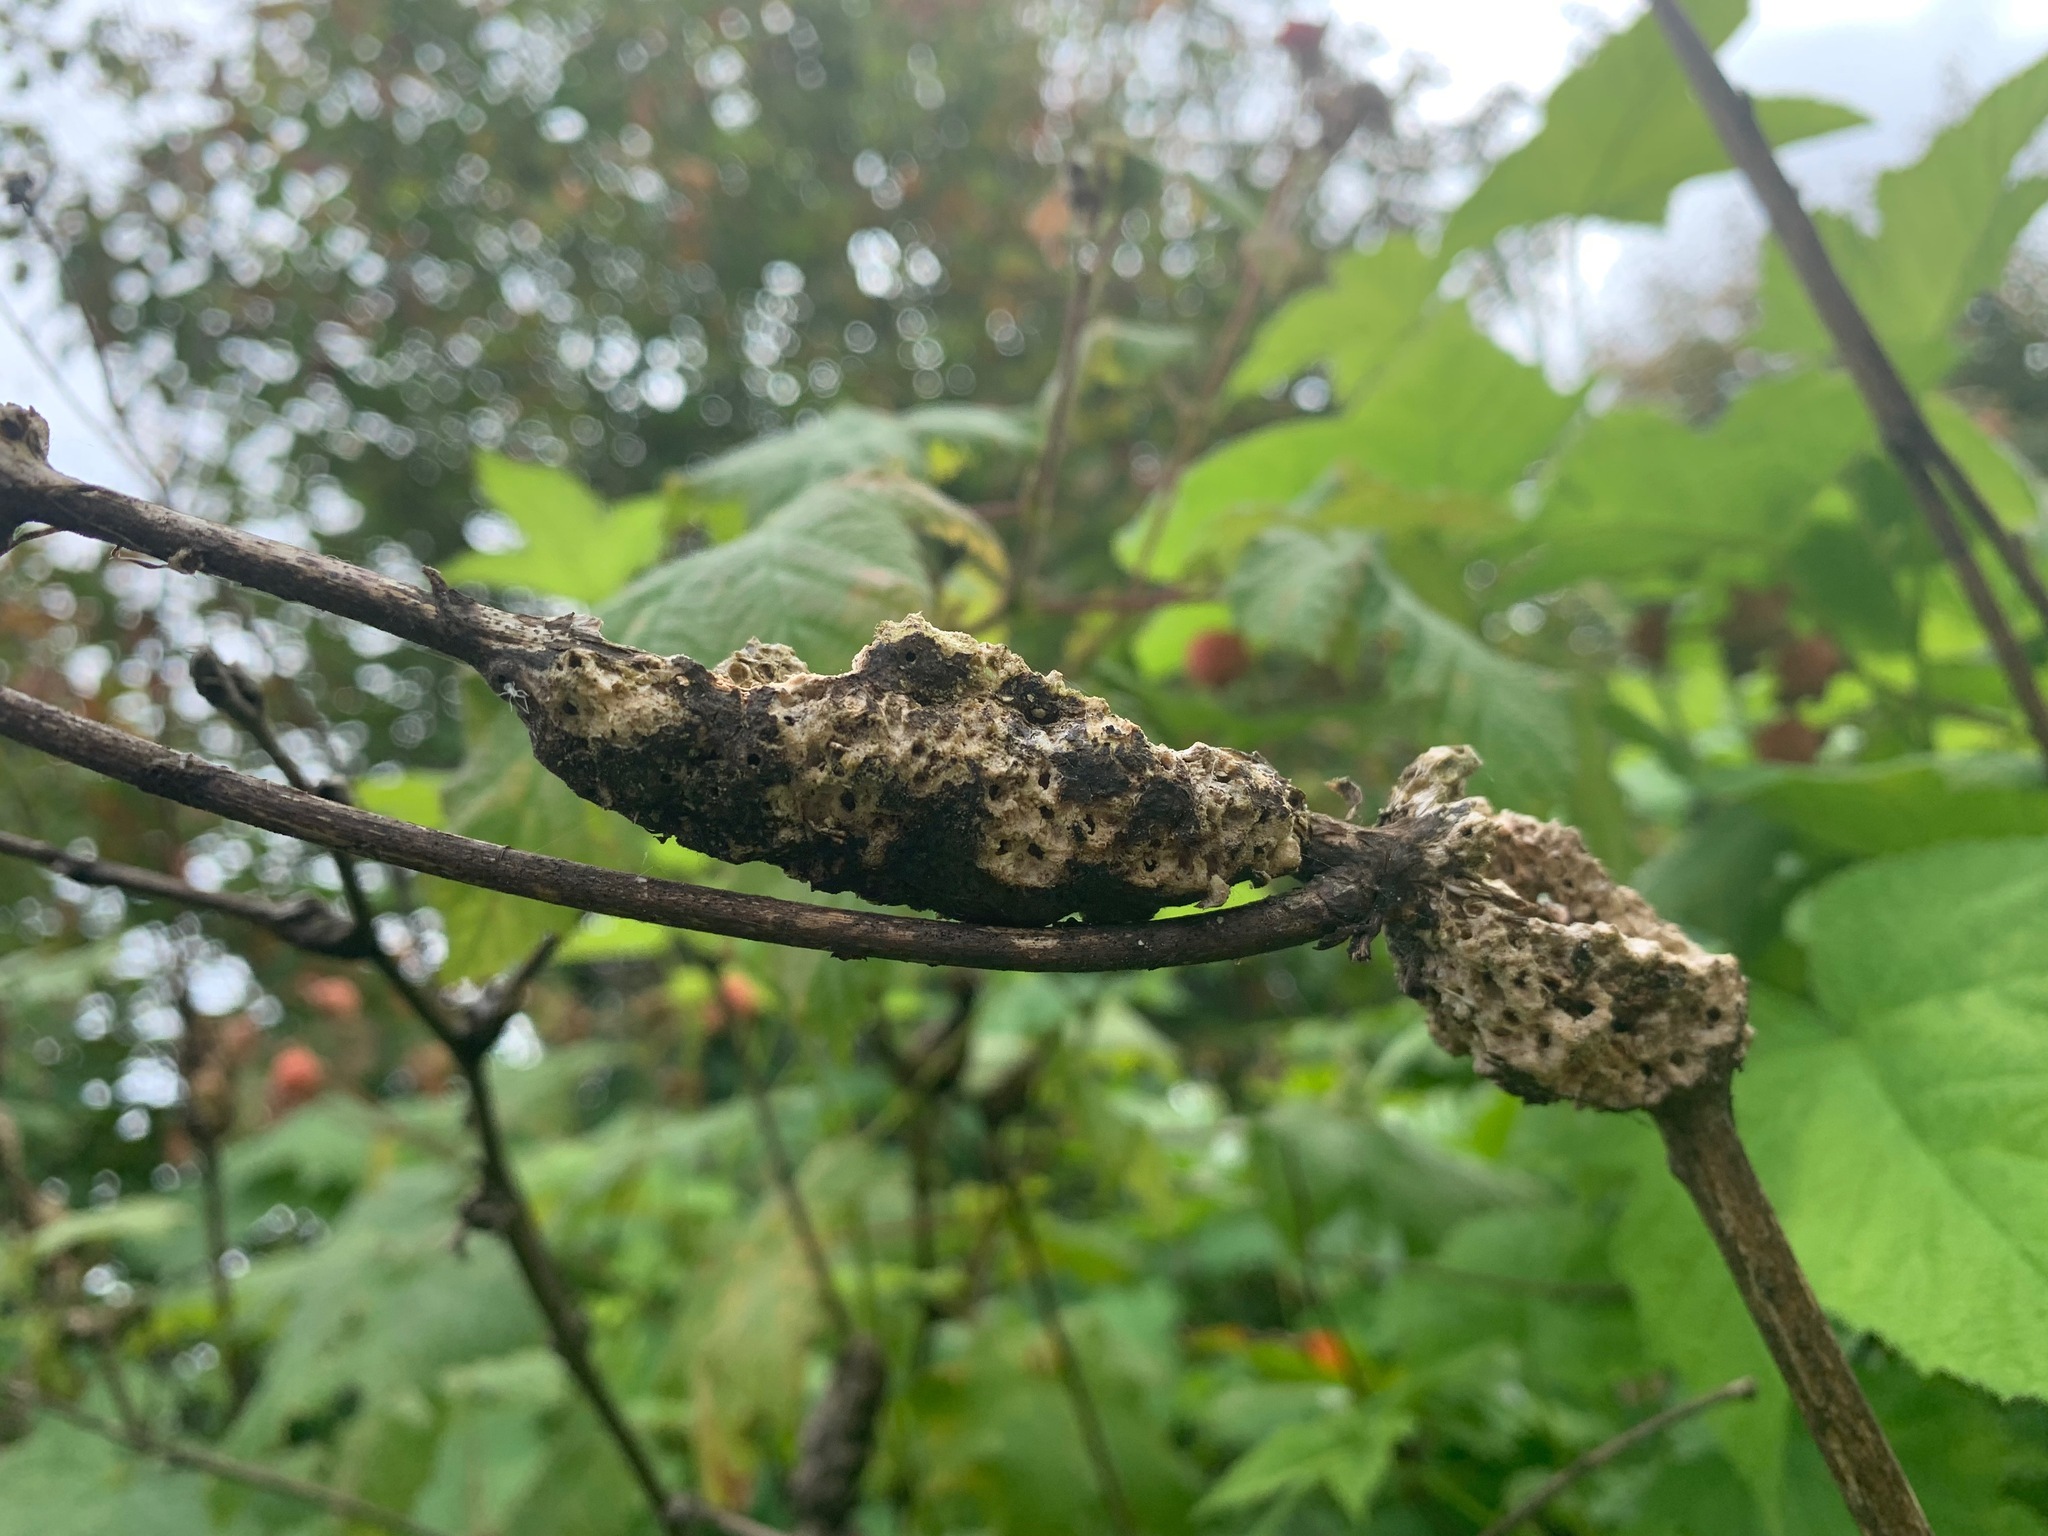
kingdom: Animalia
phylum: Arthropoda
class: Insecta
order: Hymenoptera
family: Cynipidae
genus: Diastrophus
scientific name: Diastrophus
